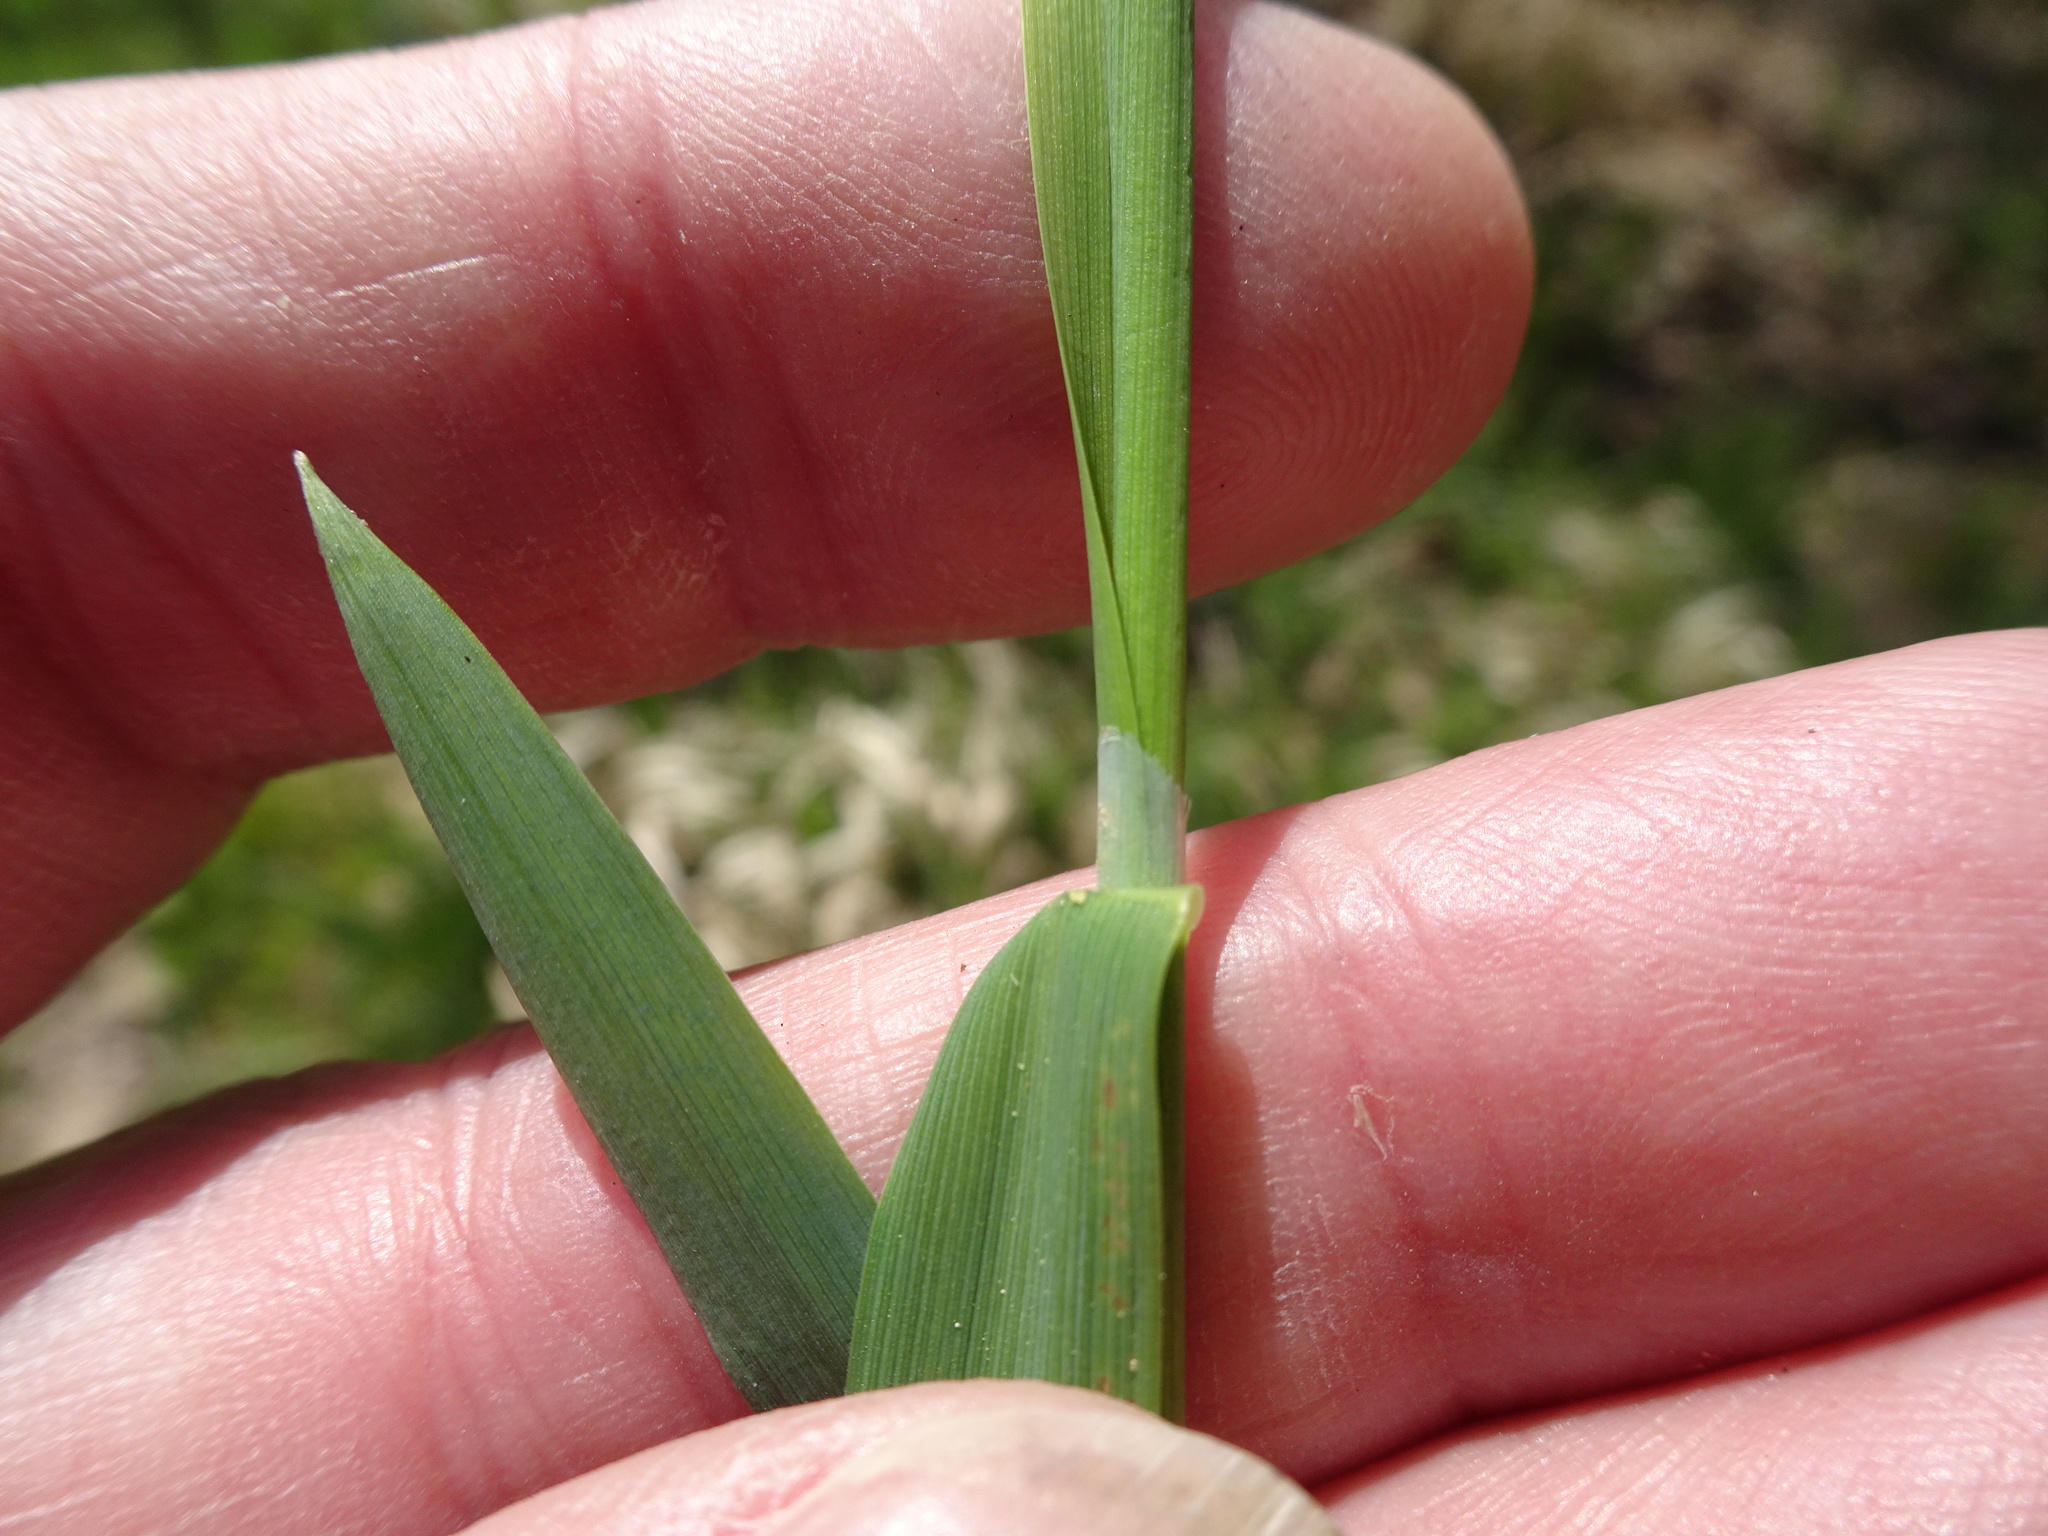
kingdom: Plantae
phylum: Tracheophyta
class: Liliopsida
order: Poales
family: Poaceae
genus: Phalaris
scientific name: Phalaris arundinacea
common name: Reed canary-grass
